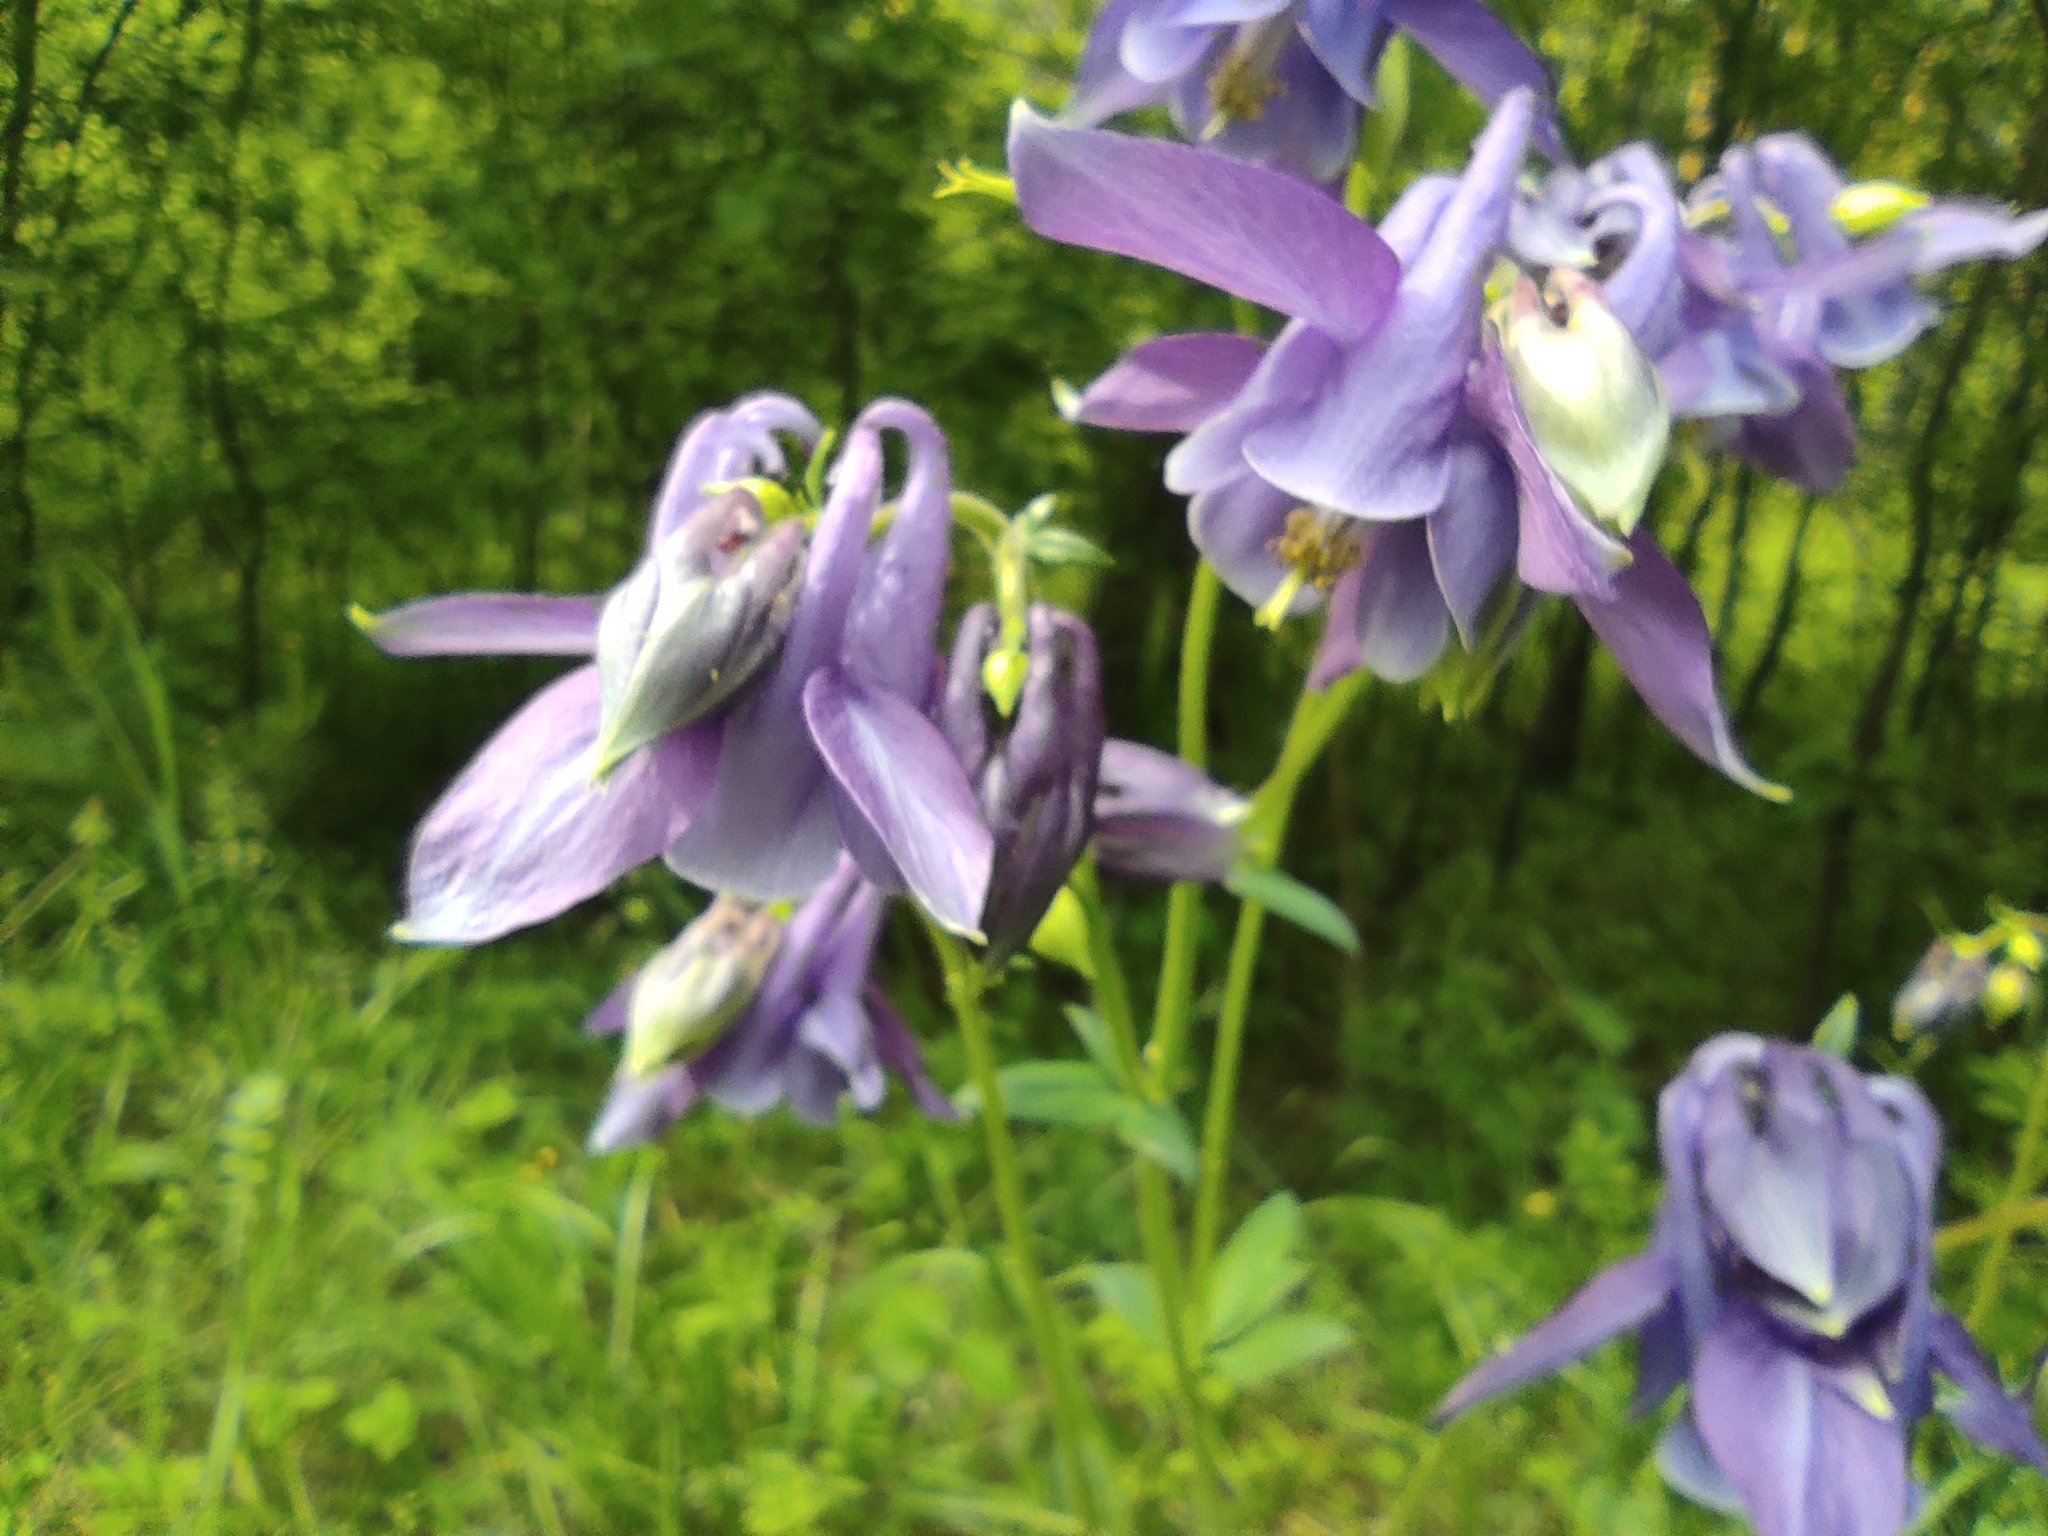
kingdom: Plantae
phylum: Tracheophyta
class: Magnoliopsida
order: Ranunculales
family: Ranunculaceae
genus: Aquilegia
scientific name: Aquilegia sibirica
